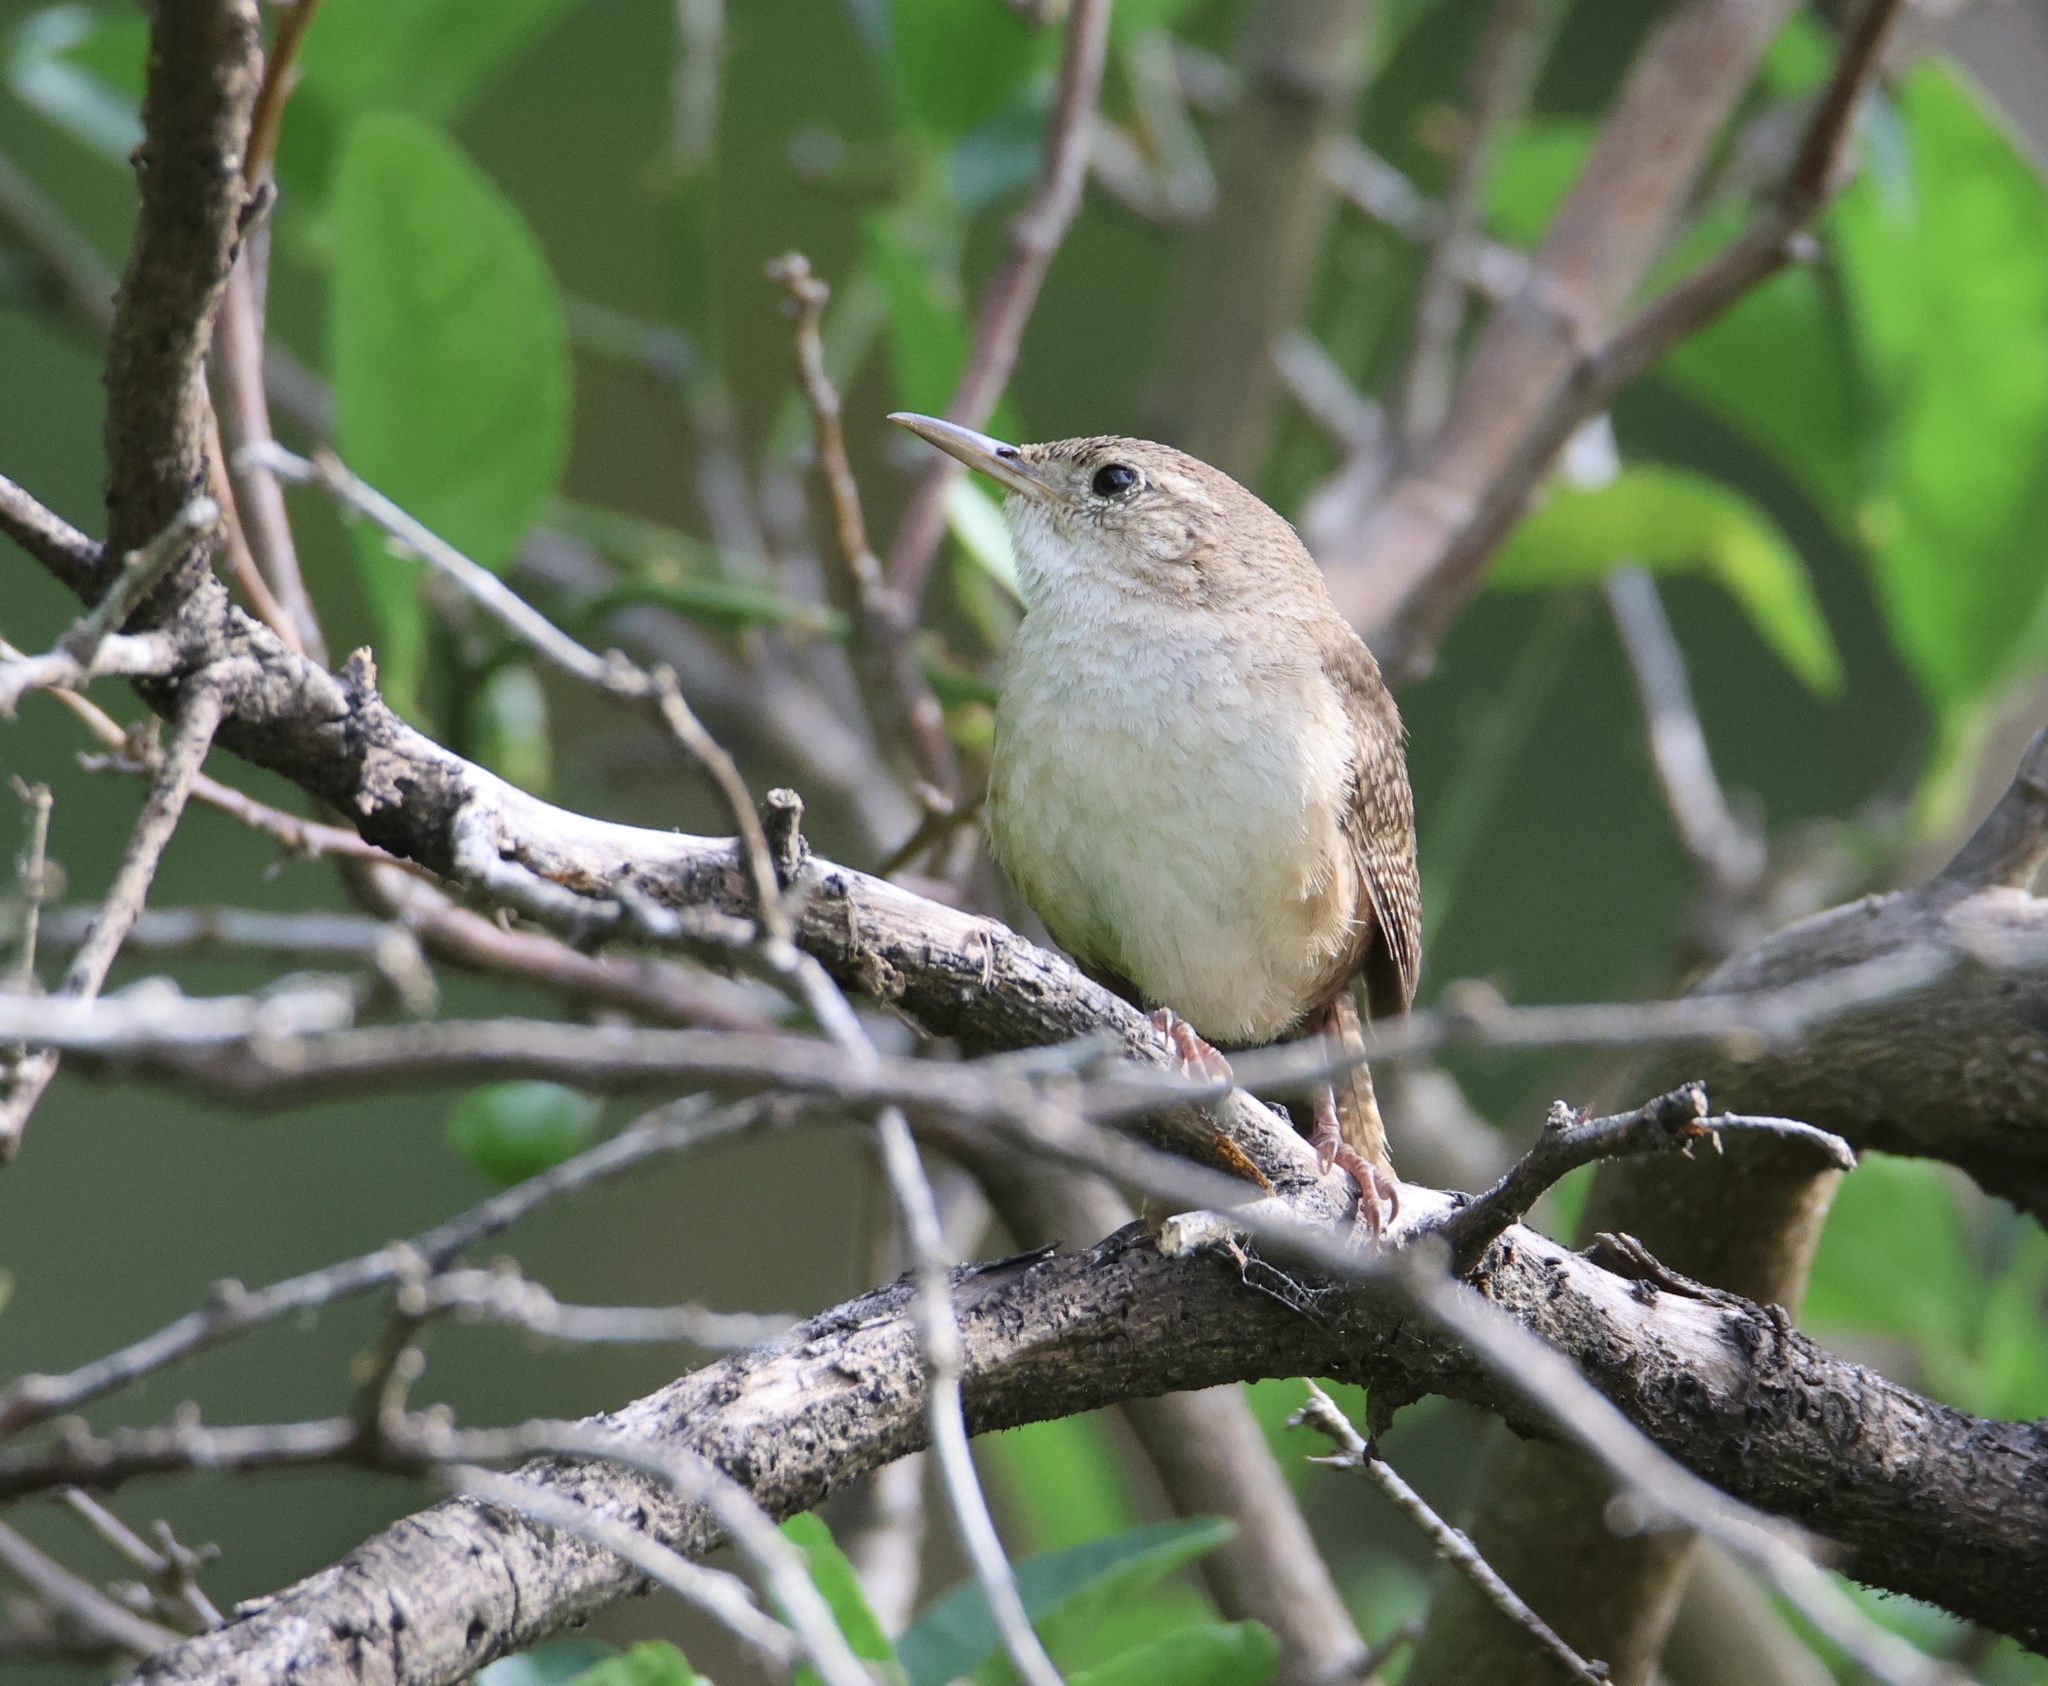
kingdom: Animalia
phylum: Chordata
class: Aves
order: Passeriformes
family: Troglodytidae
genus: Troglodytes
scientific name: Troglodytes aedon
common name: House wren
